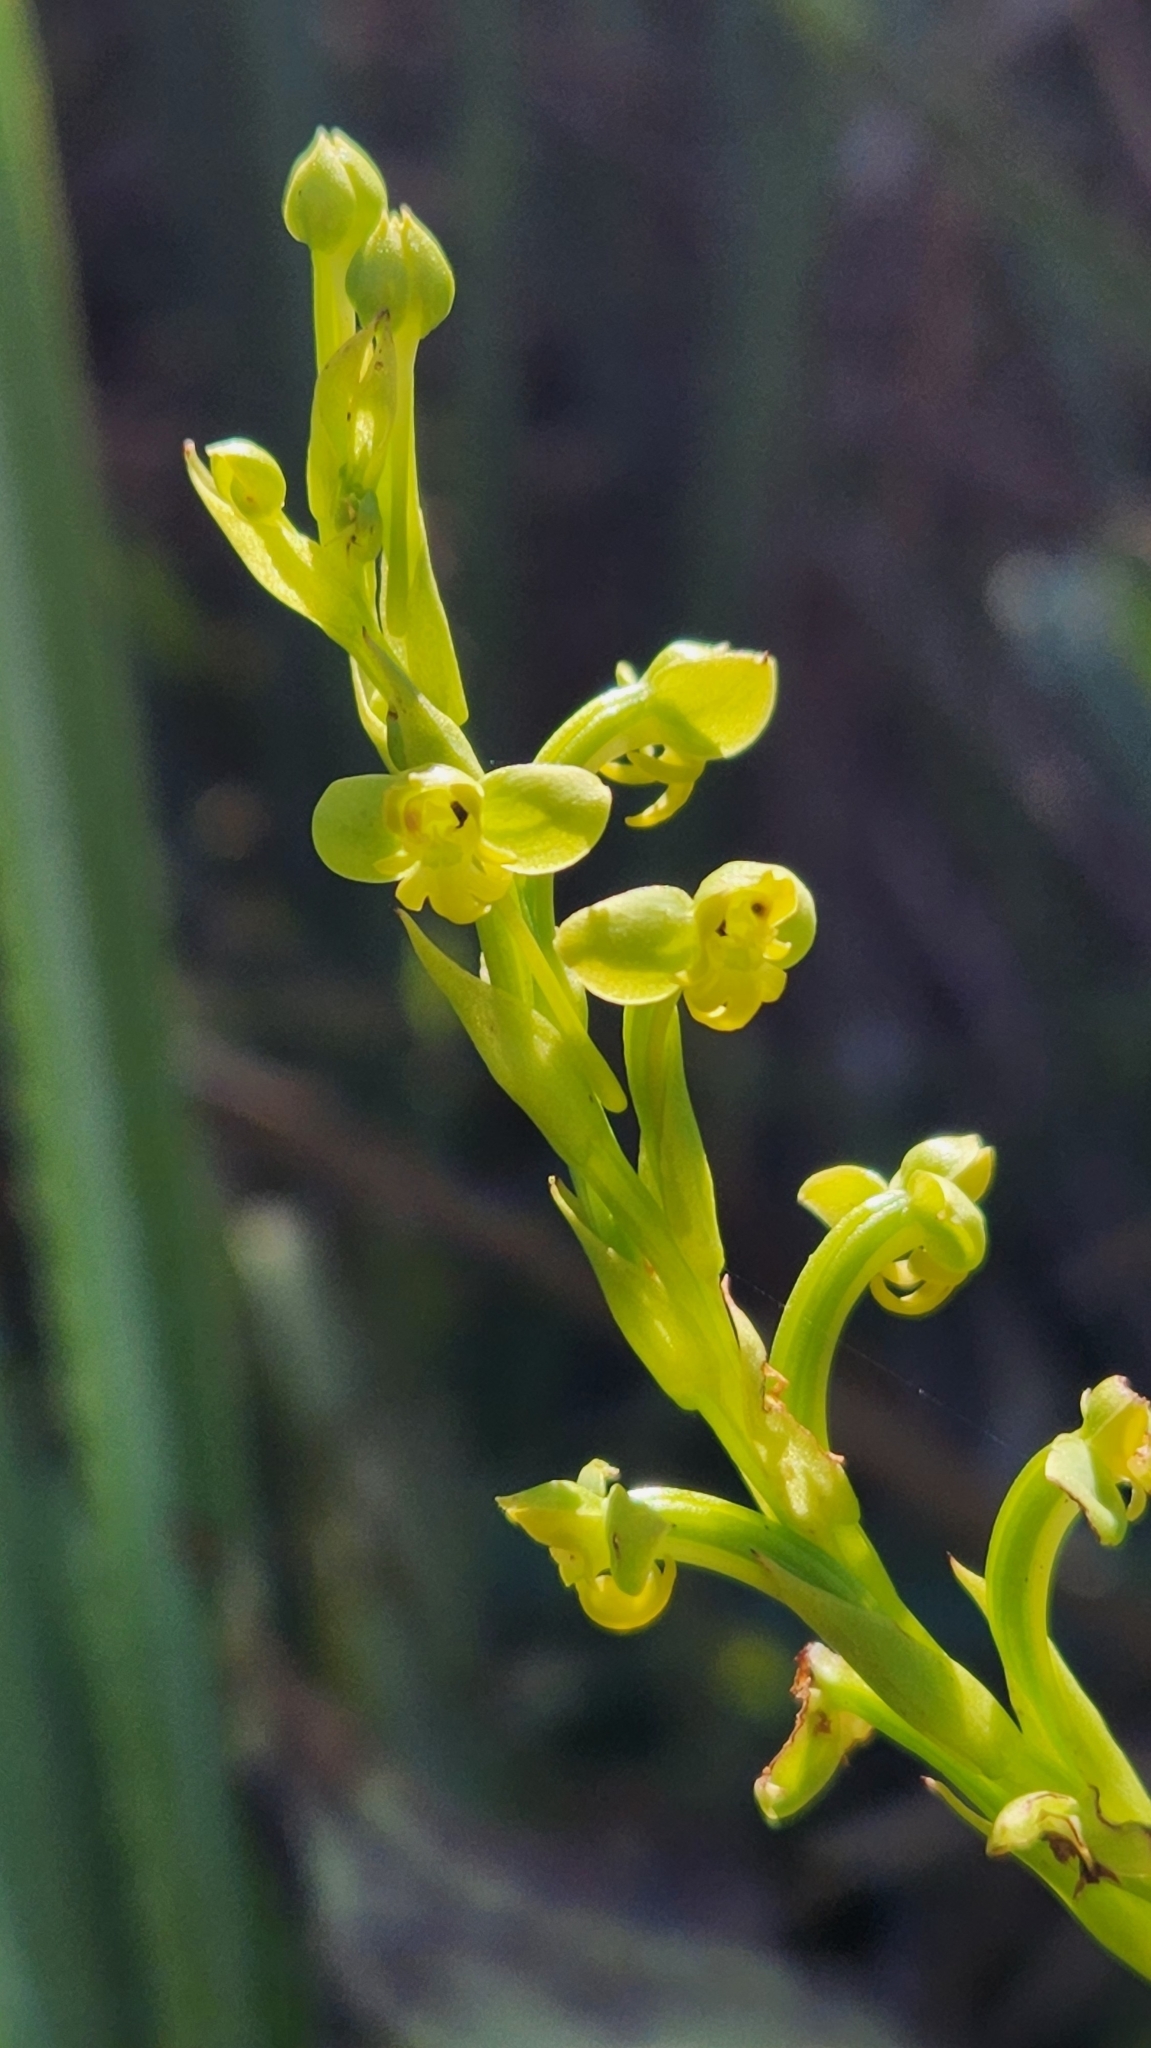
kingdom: Plantae
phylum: Tracheophyta
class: Liliopsida
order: Asparagales
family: Orchidaceae
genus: Habenaria
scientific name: Habenaria henscheniana
